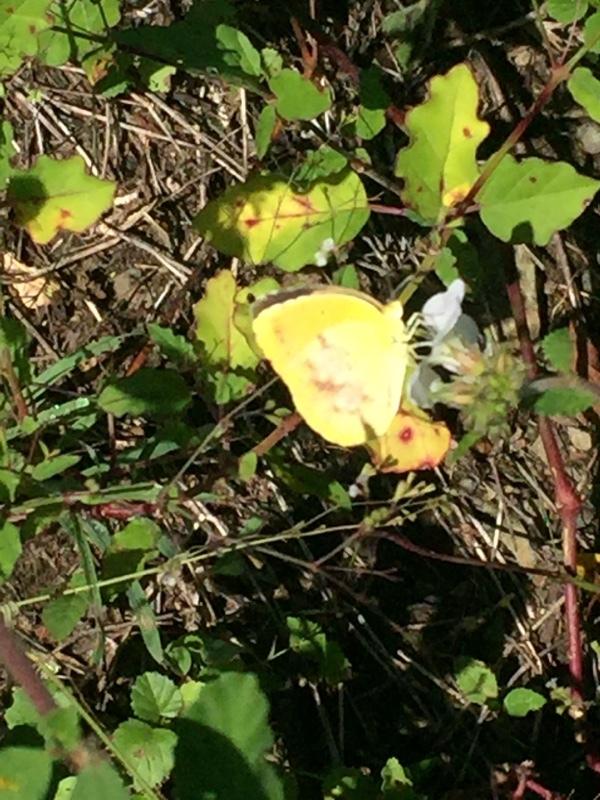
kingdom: Animalia
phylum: Arthropoda
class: Insecta
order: Lepidoptera
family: Pieridae
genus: Abaeis
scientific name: Abaeis nicippe
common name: Sleepy orange
